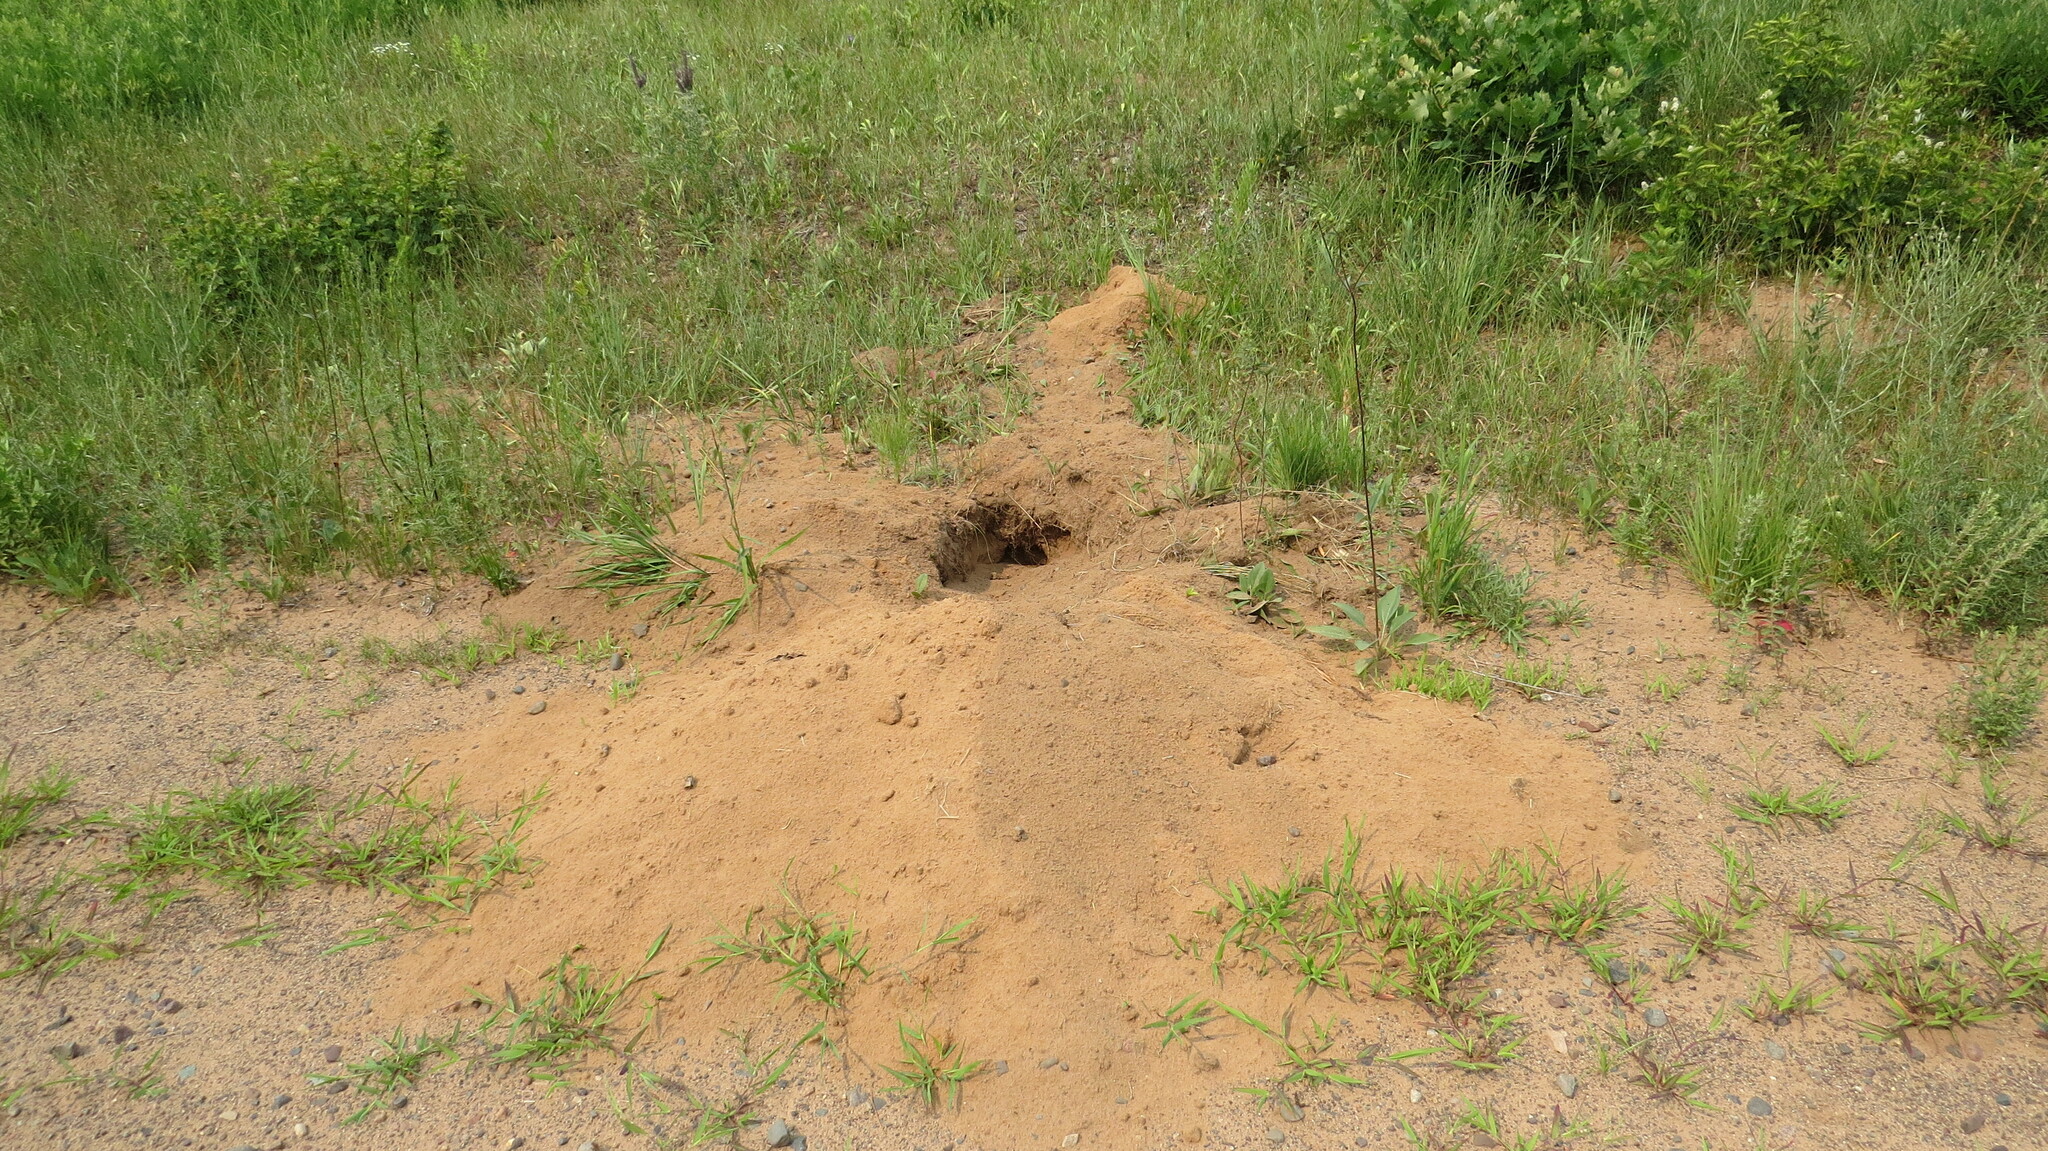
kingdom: Animalia
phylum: Chordata
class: Mammalia
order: Rodentia
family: Geomyidae
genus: Geomys
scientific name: Geomys bursarius
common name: Plains pocket gopher
